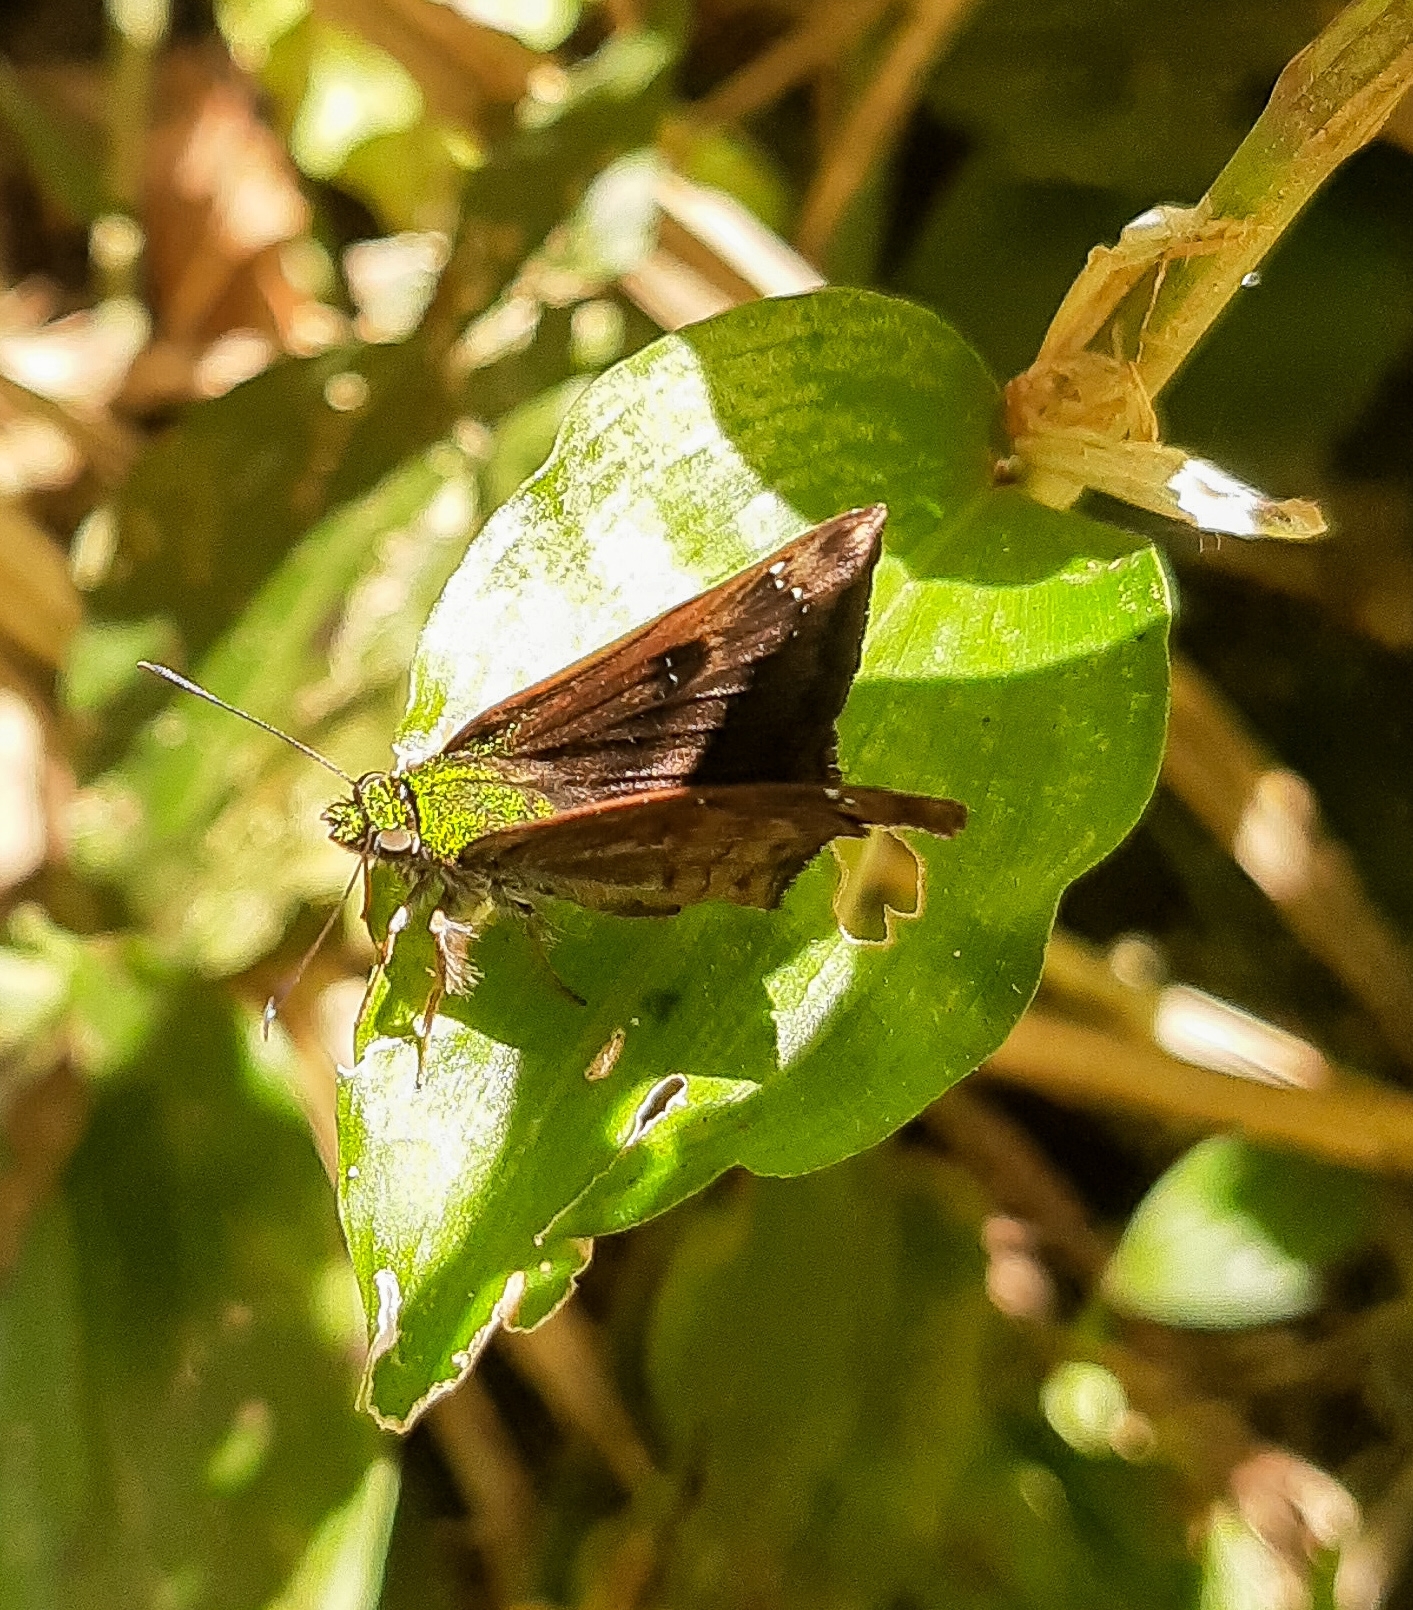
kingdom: Animalia
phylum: Arthropoda
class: Insecta
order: Lepidoptera
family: Hesperiidae
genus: Gorgopas
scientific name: Gorgopas petale
